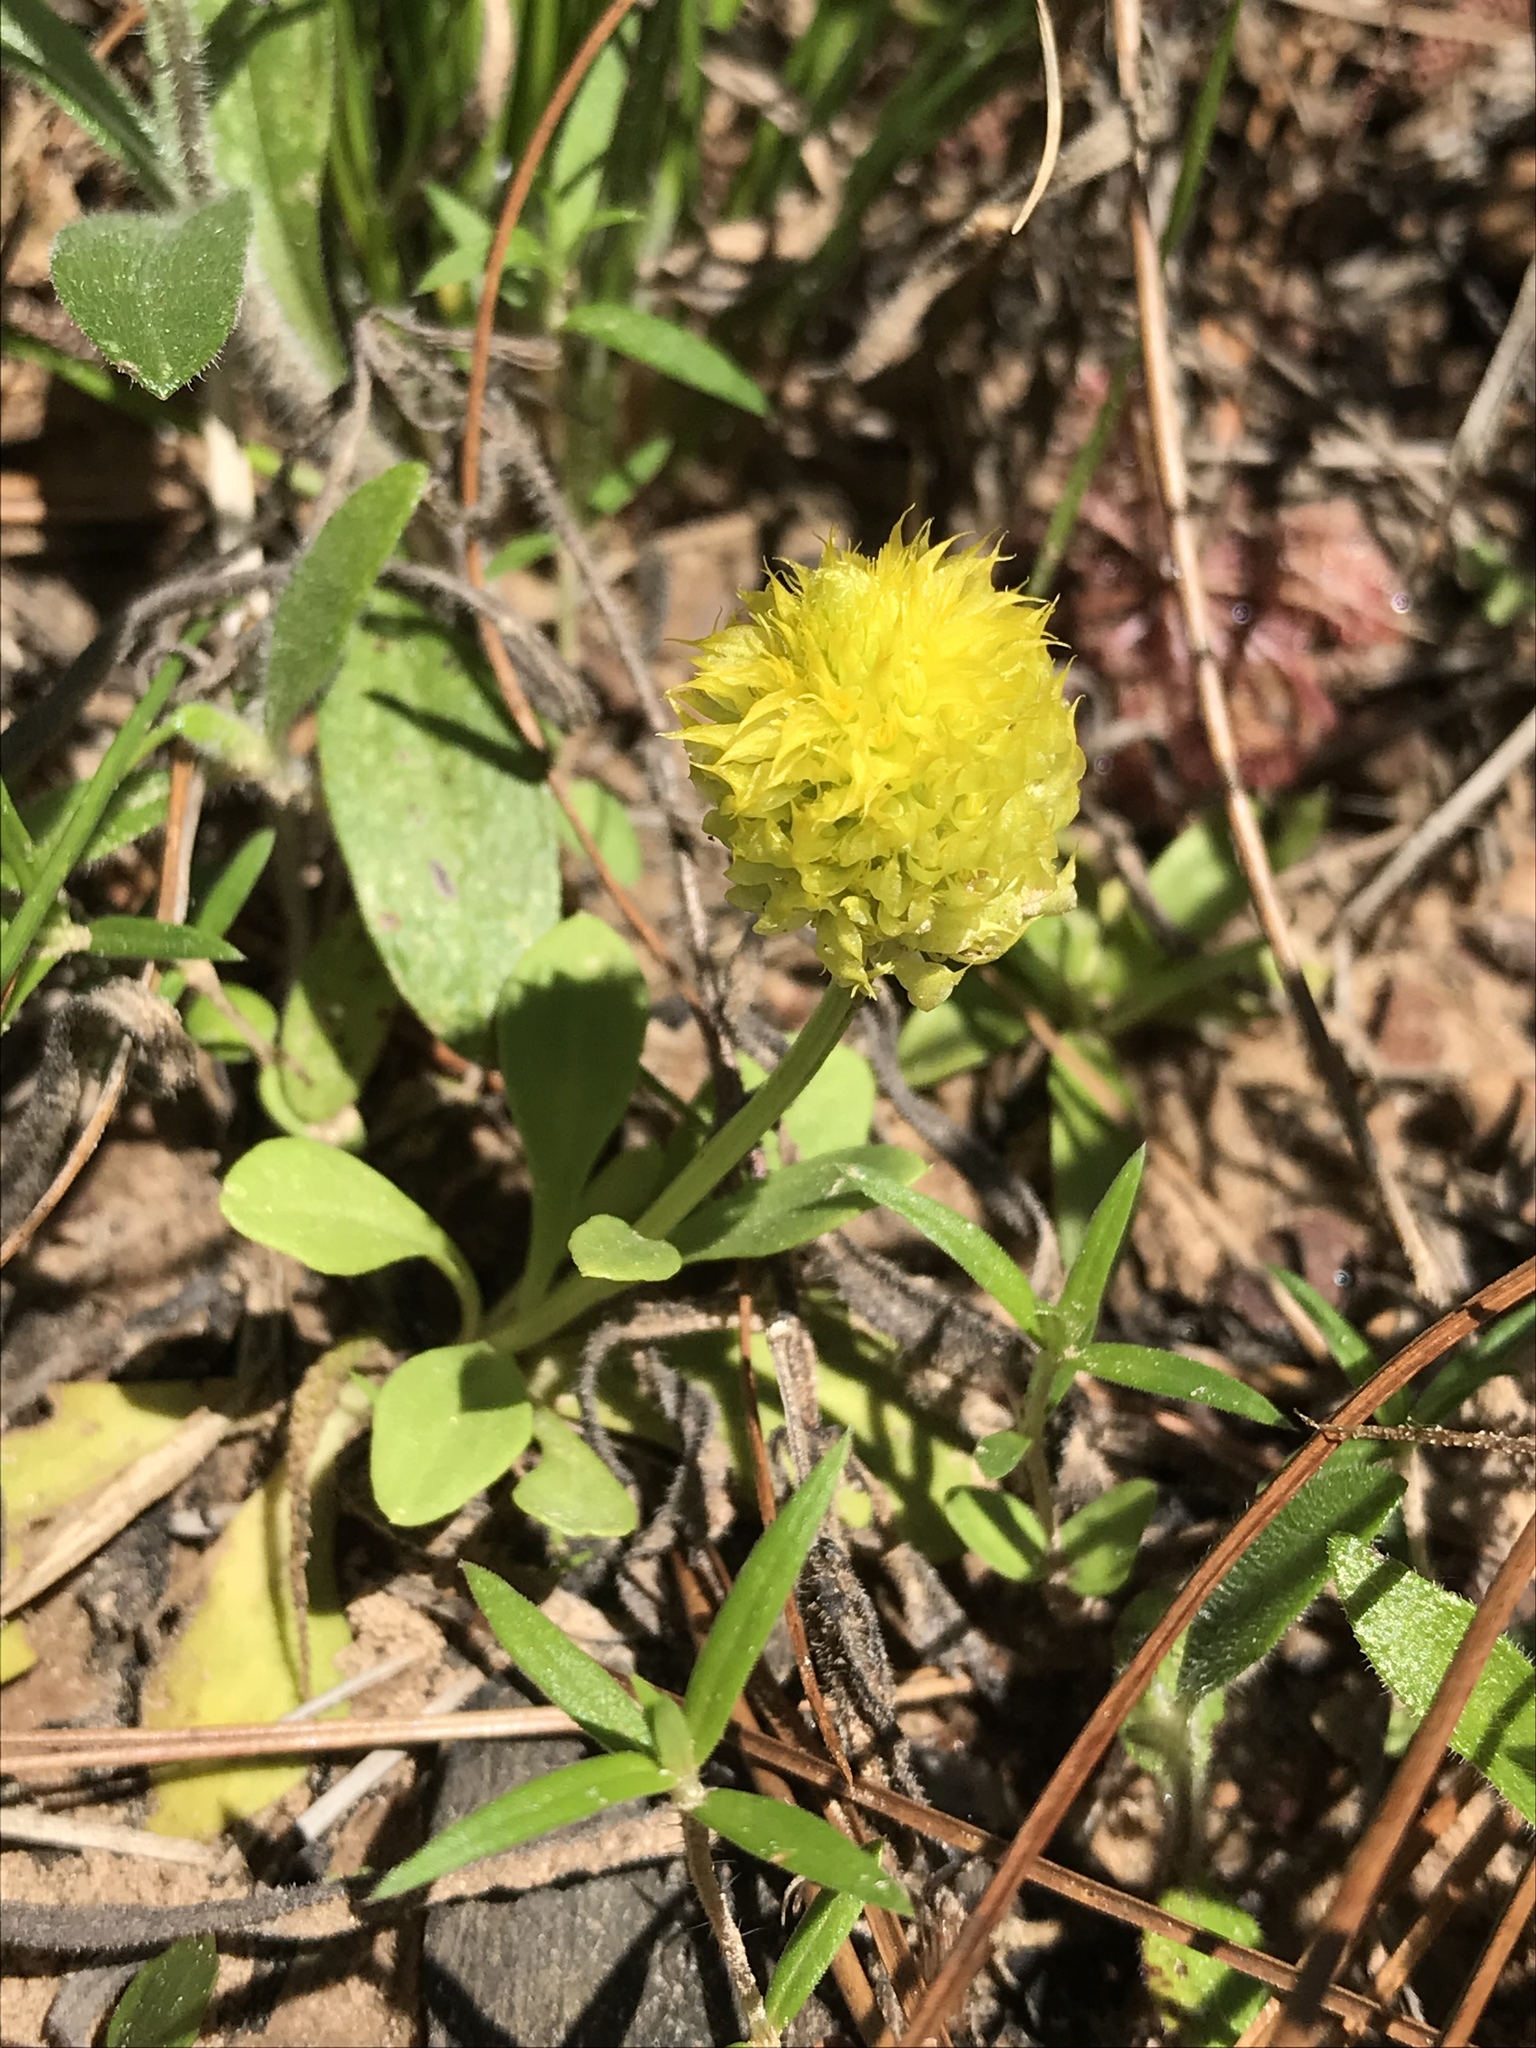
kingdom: Plantae
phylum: Tracheophyta
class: Magnoliopsida
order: Fabales
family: Polygalaceae
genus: Polygala
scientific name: Polygala nana
